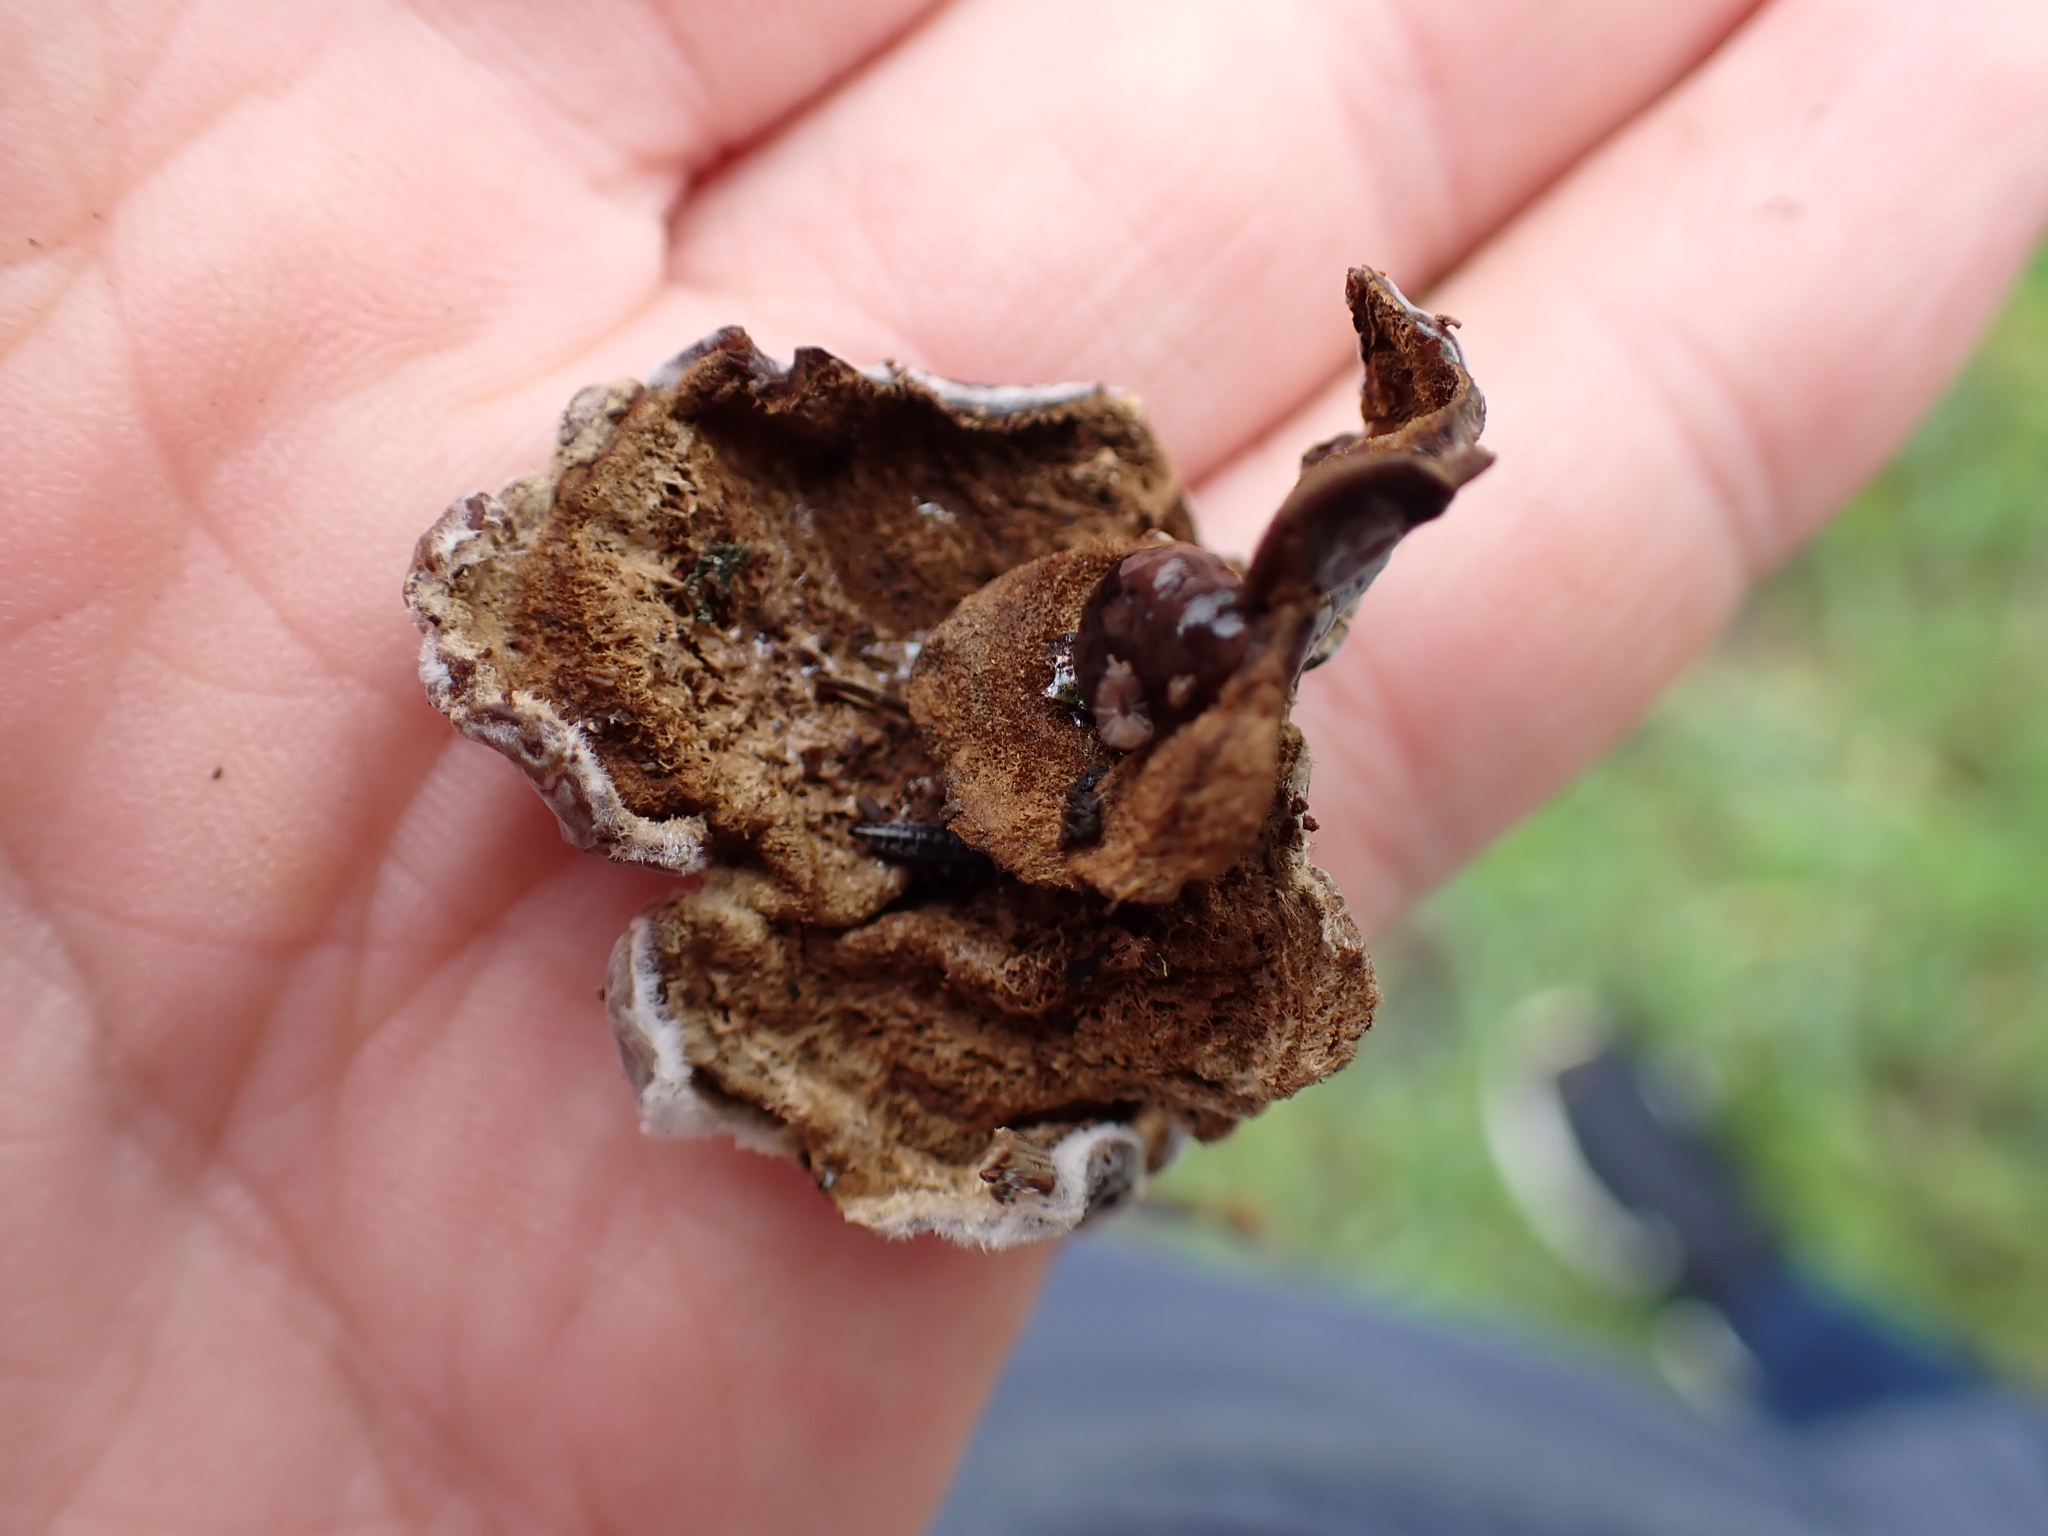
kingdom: Fungi
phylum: Basidiomycota
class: Agaricomycetes
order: Auriculariales
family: Auriculariaceae
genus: Auricularia
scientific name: Auricularia mesenterica
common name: Tripe fungus
